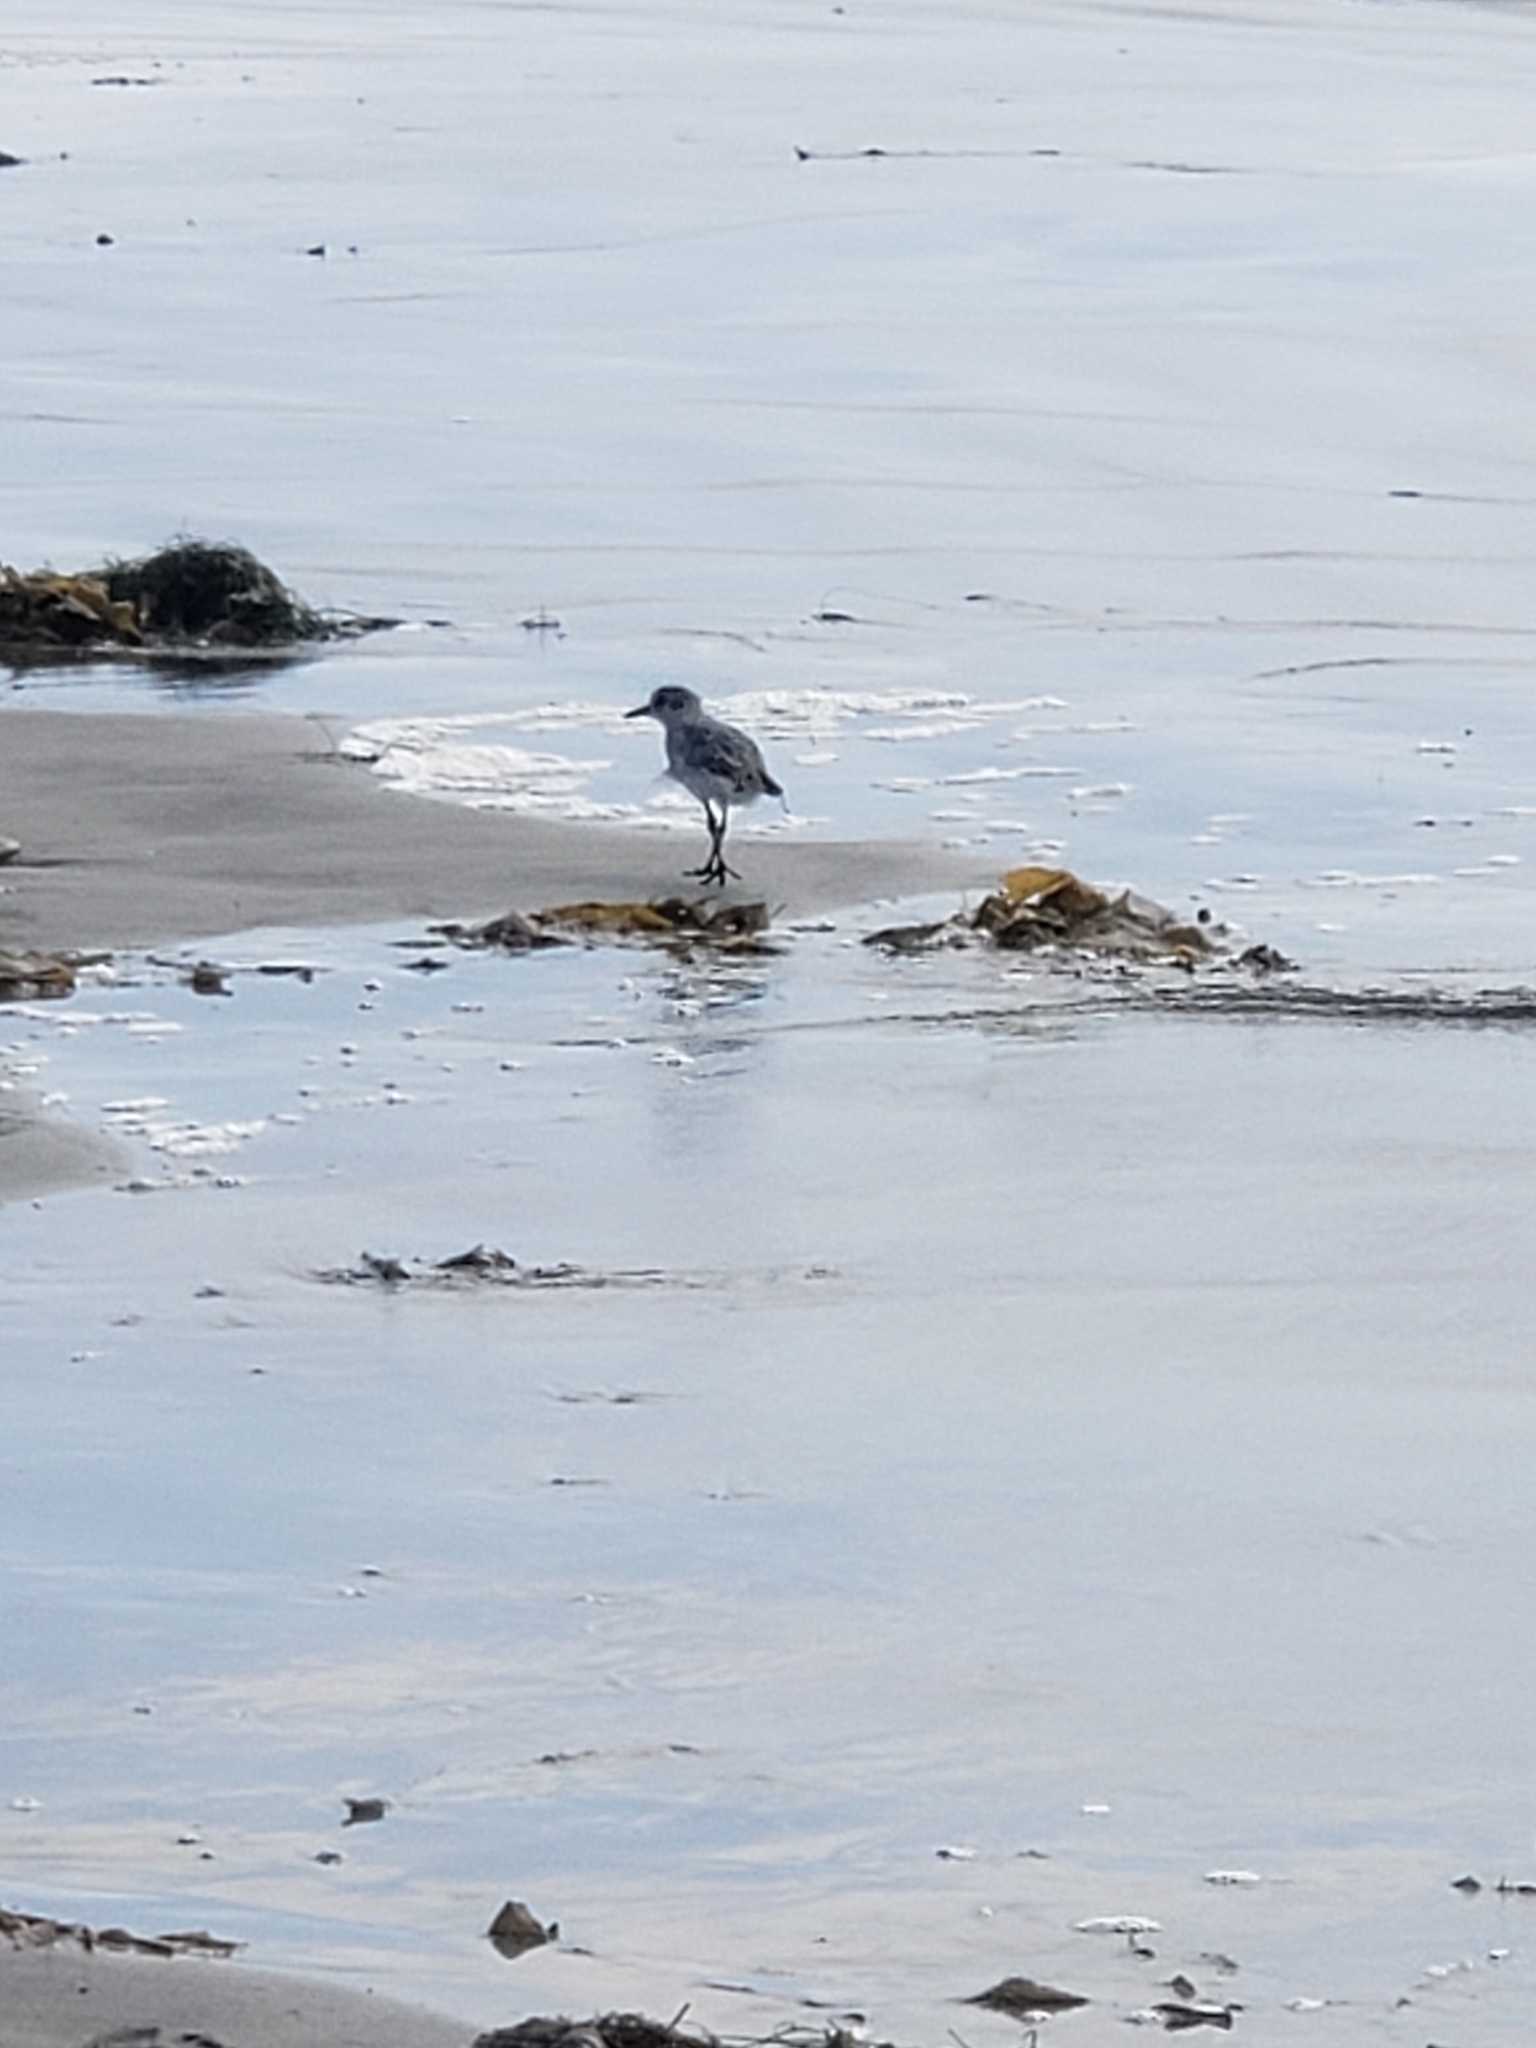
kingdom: Animalia
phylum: Chordata
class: Aves
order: Charadriiformes
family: Charadriidae
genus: Pluvialis
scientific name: Pluvialis squatarola
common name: Grey plover
